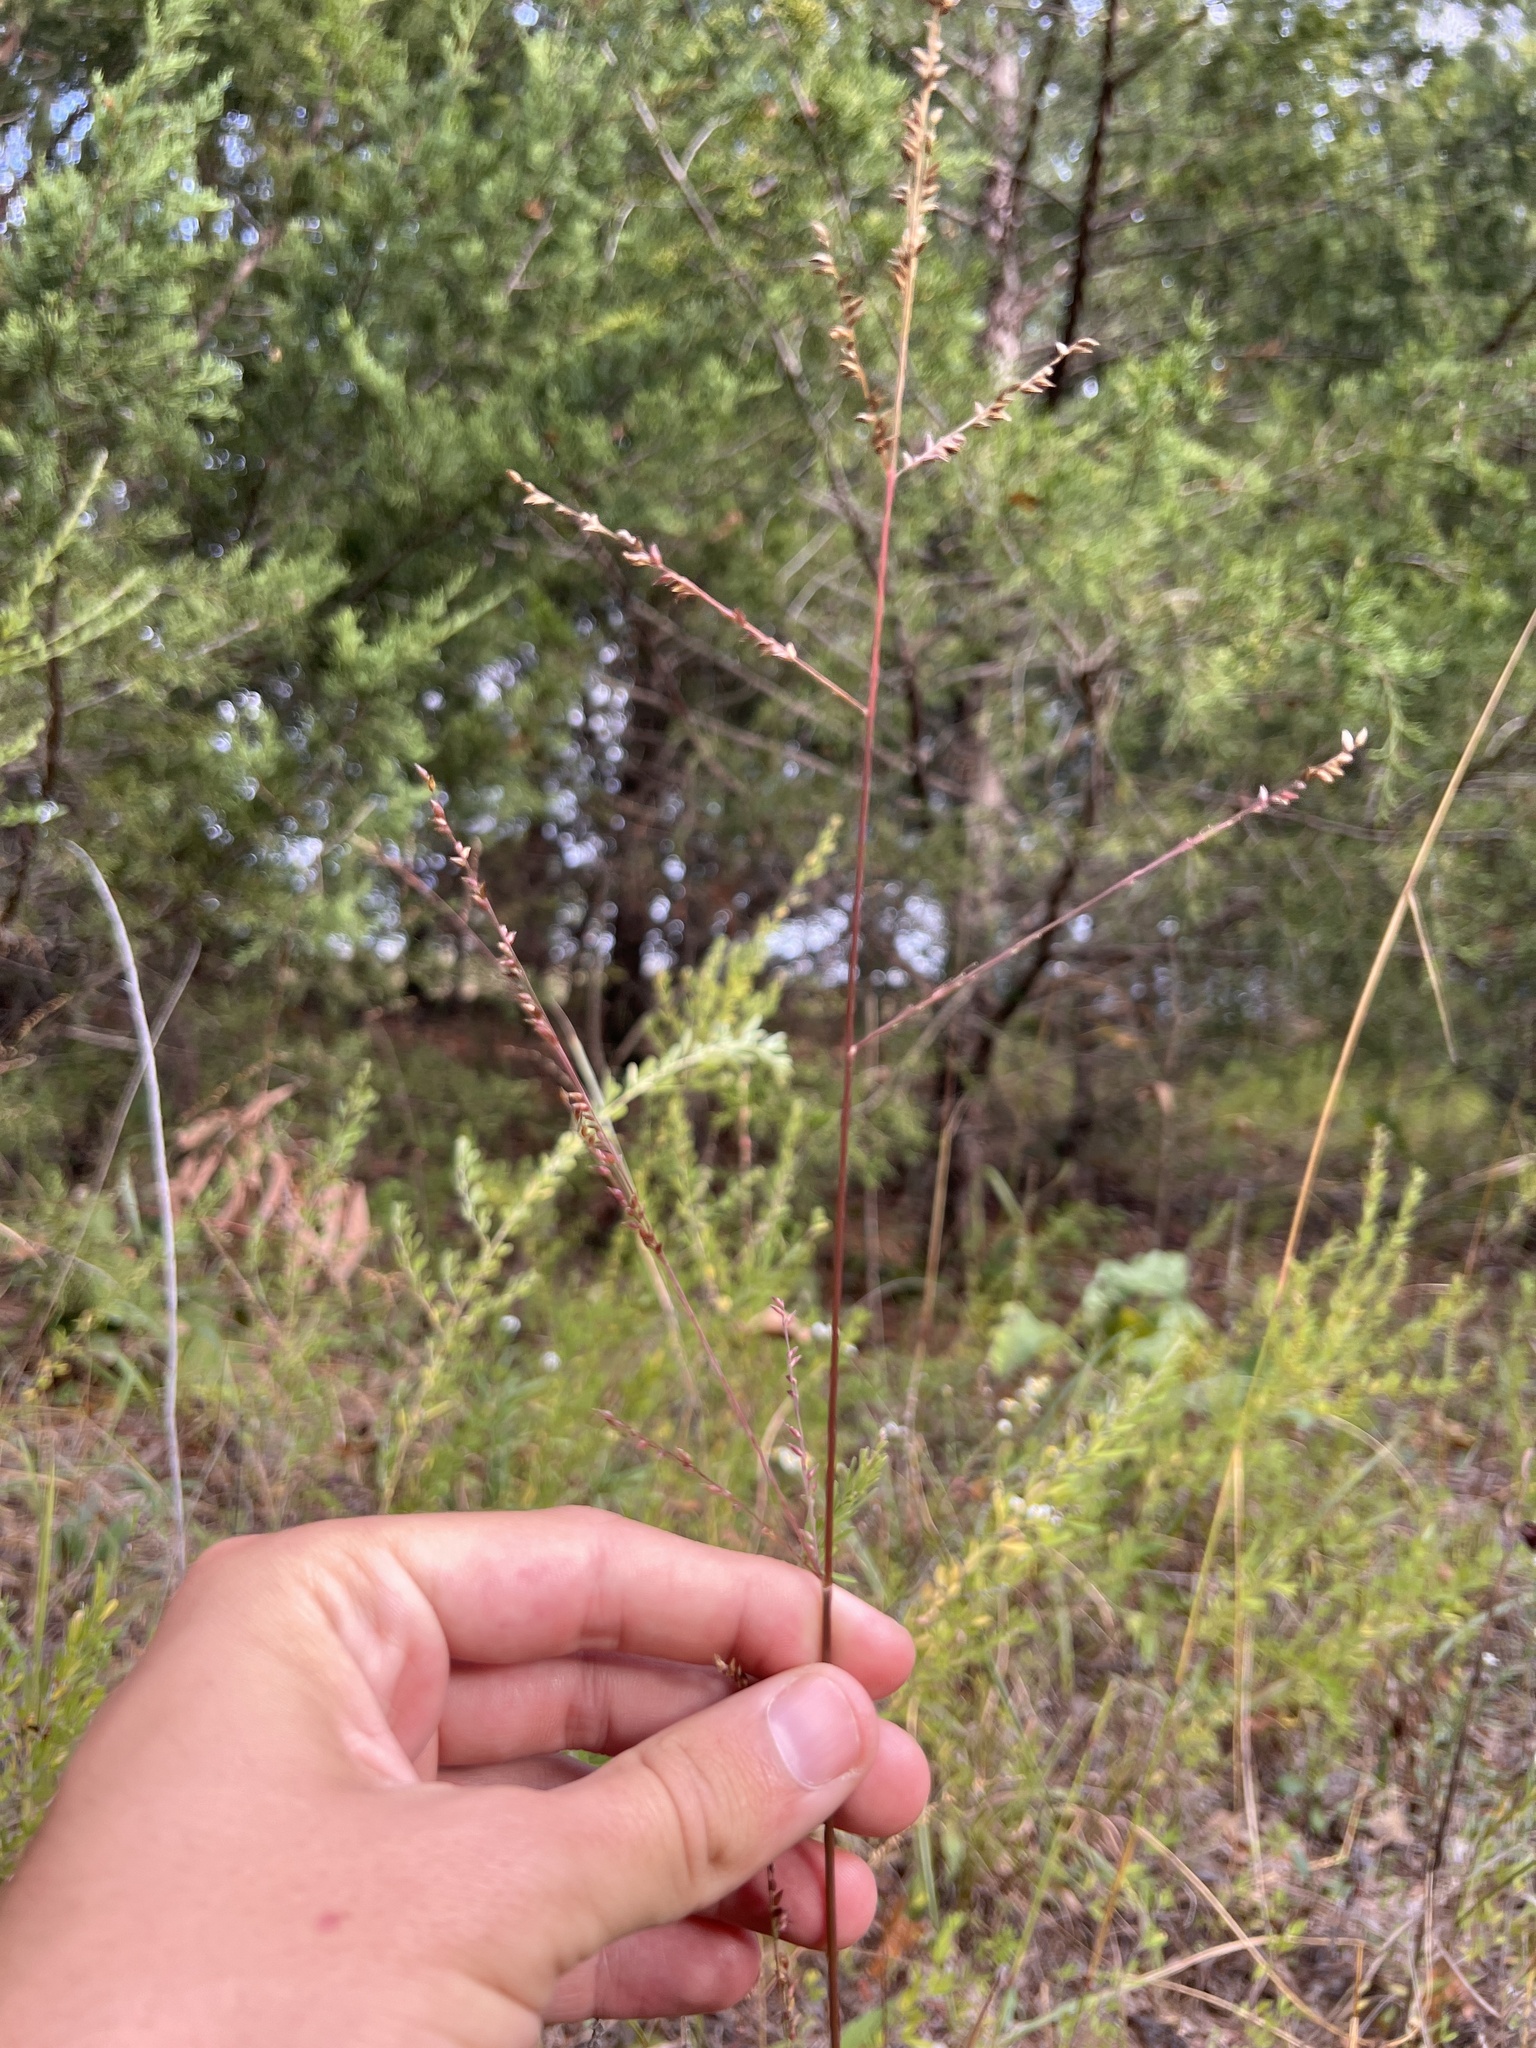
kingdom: Plantae
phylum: Tracheophyta
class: Liliopsida
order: Poales
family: Poaceae
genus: Coleataenia
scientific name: Coleataenia anceps
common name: Beaked panic grass
